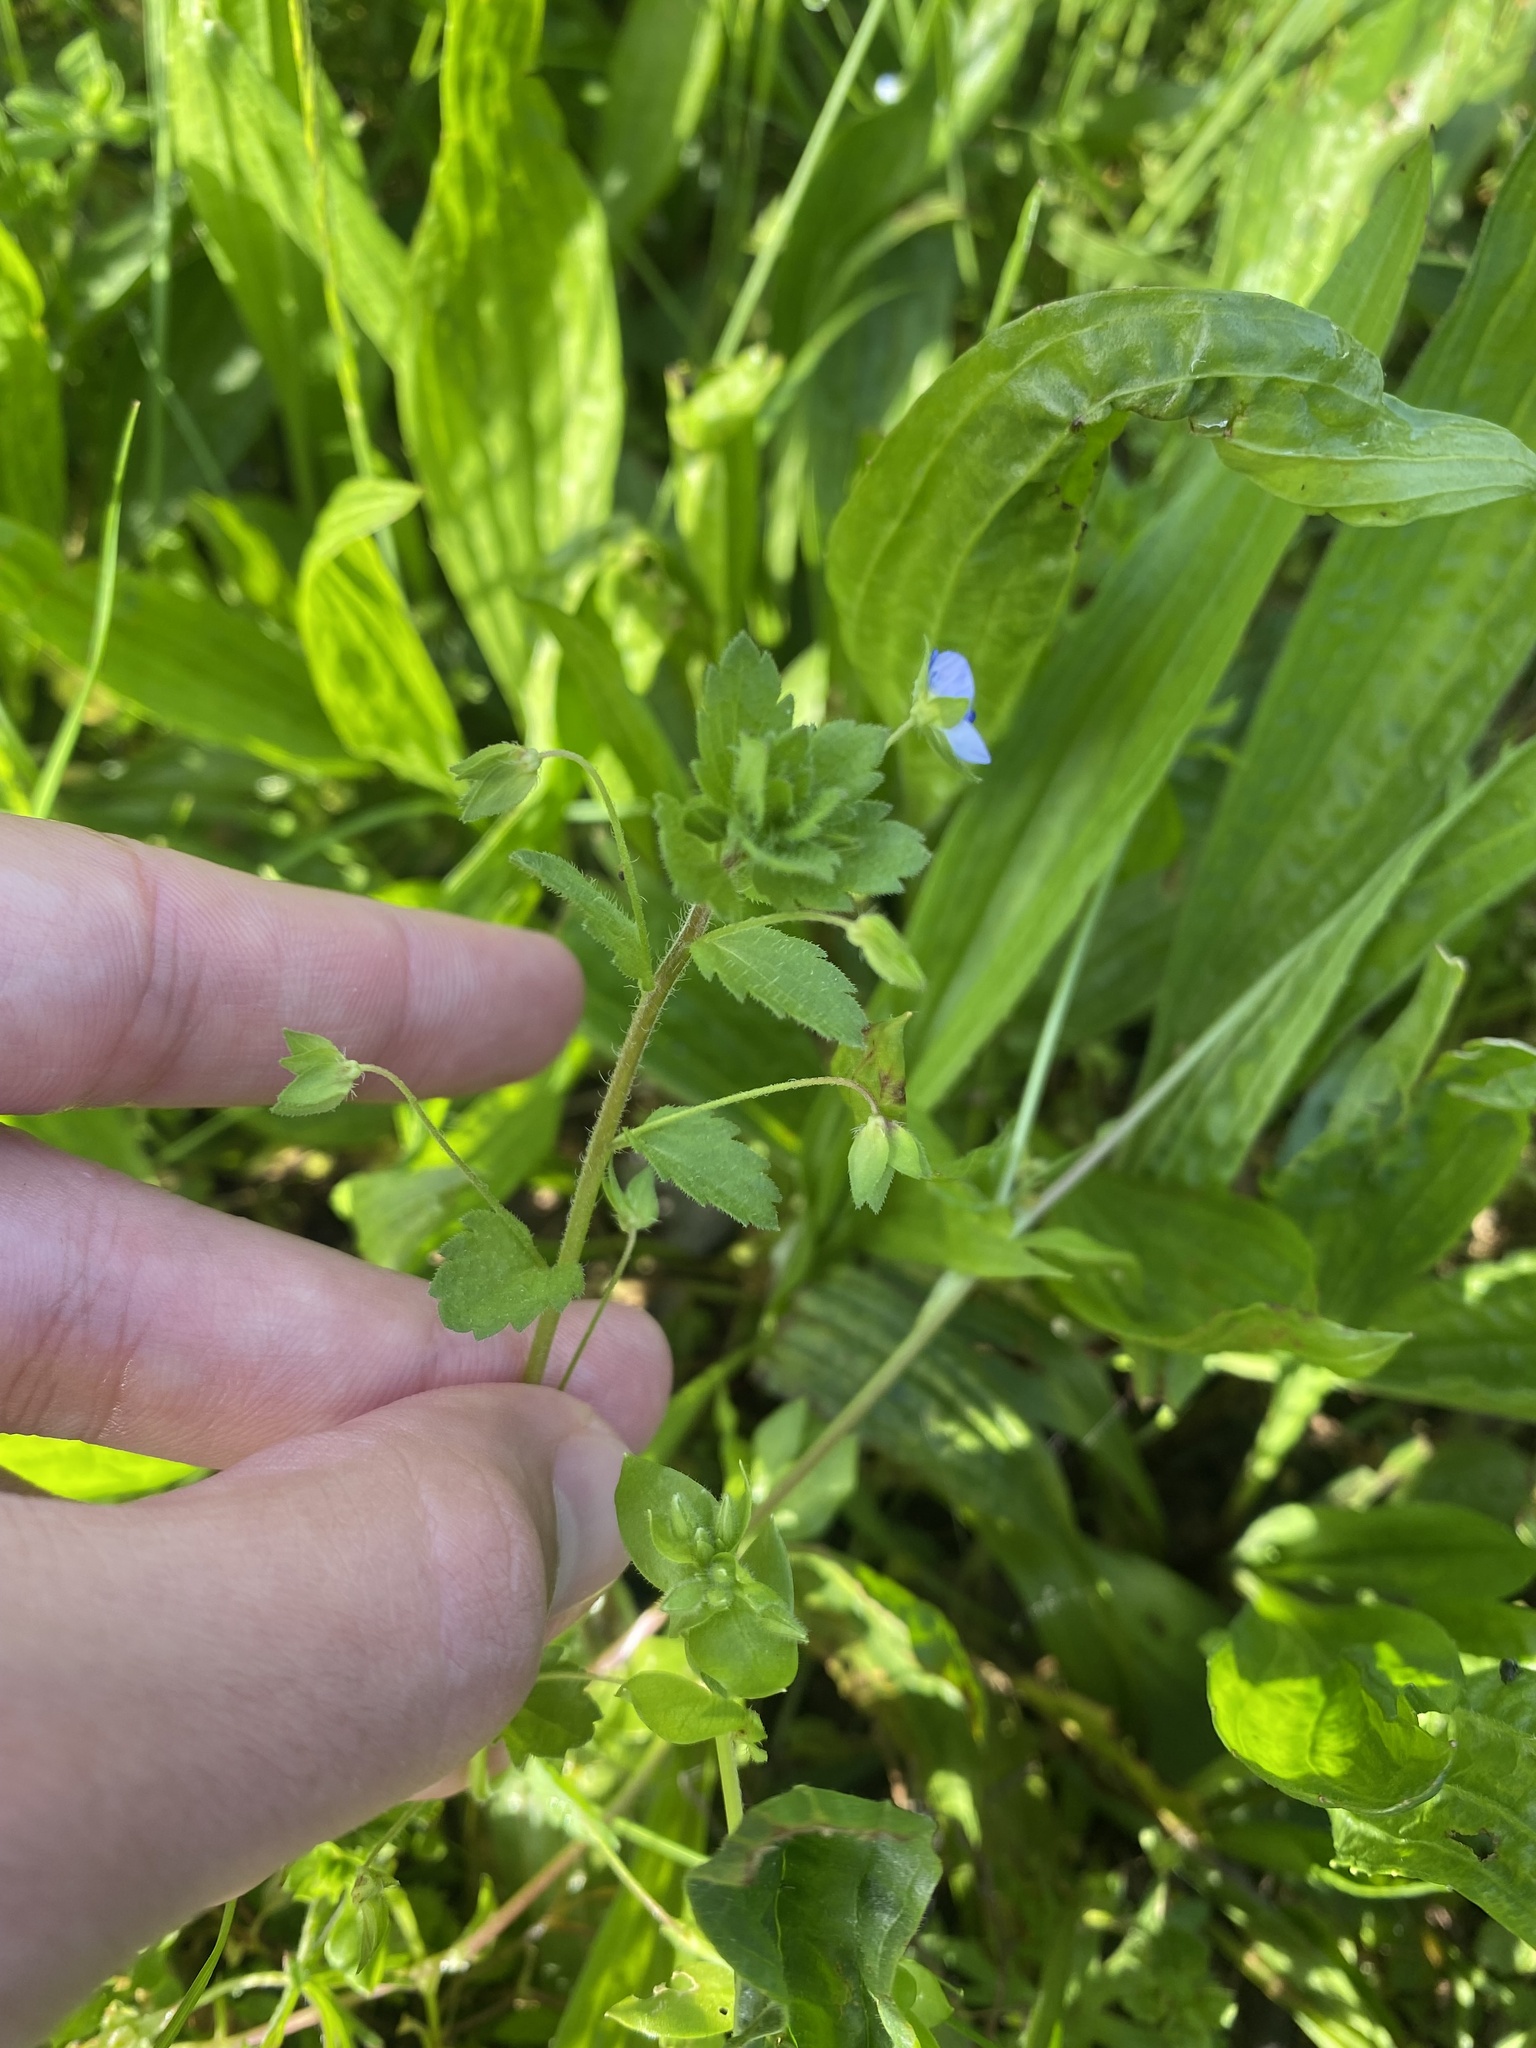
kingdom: Plantae
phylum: Tracheophyta
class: Magnoliopsida
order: Lamiales
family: Plantaginaceae
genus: Veronica
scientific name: Veronica persica
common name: Common field-speedwell
